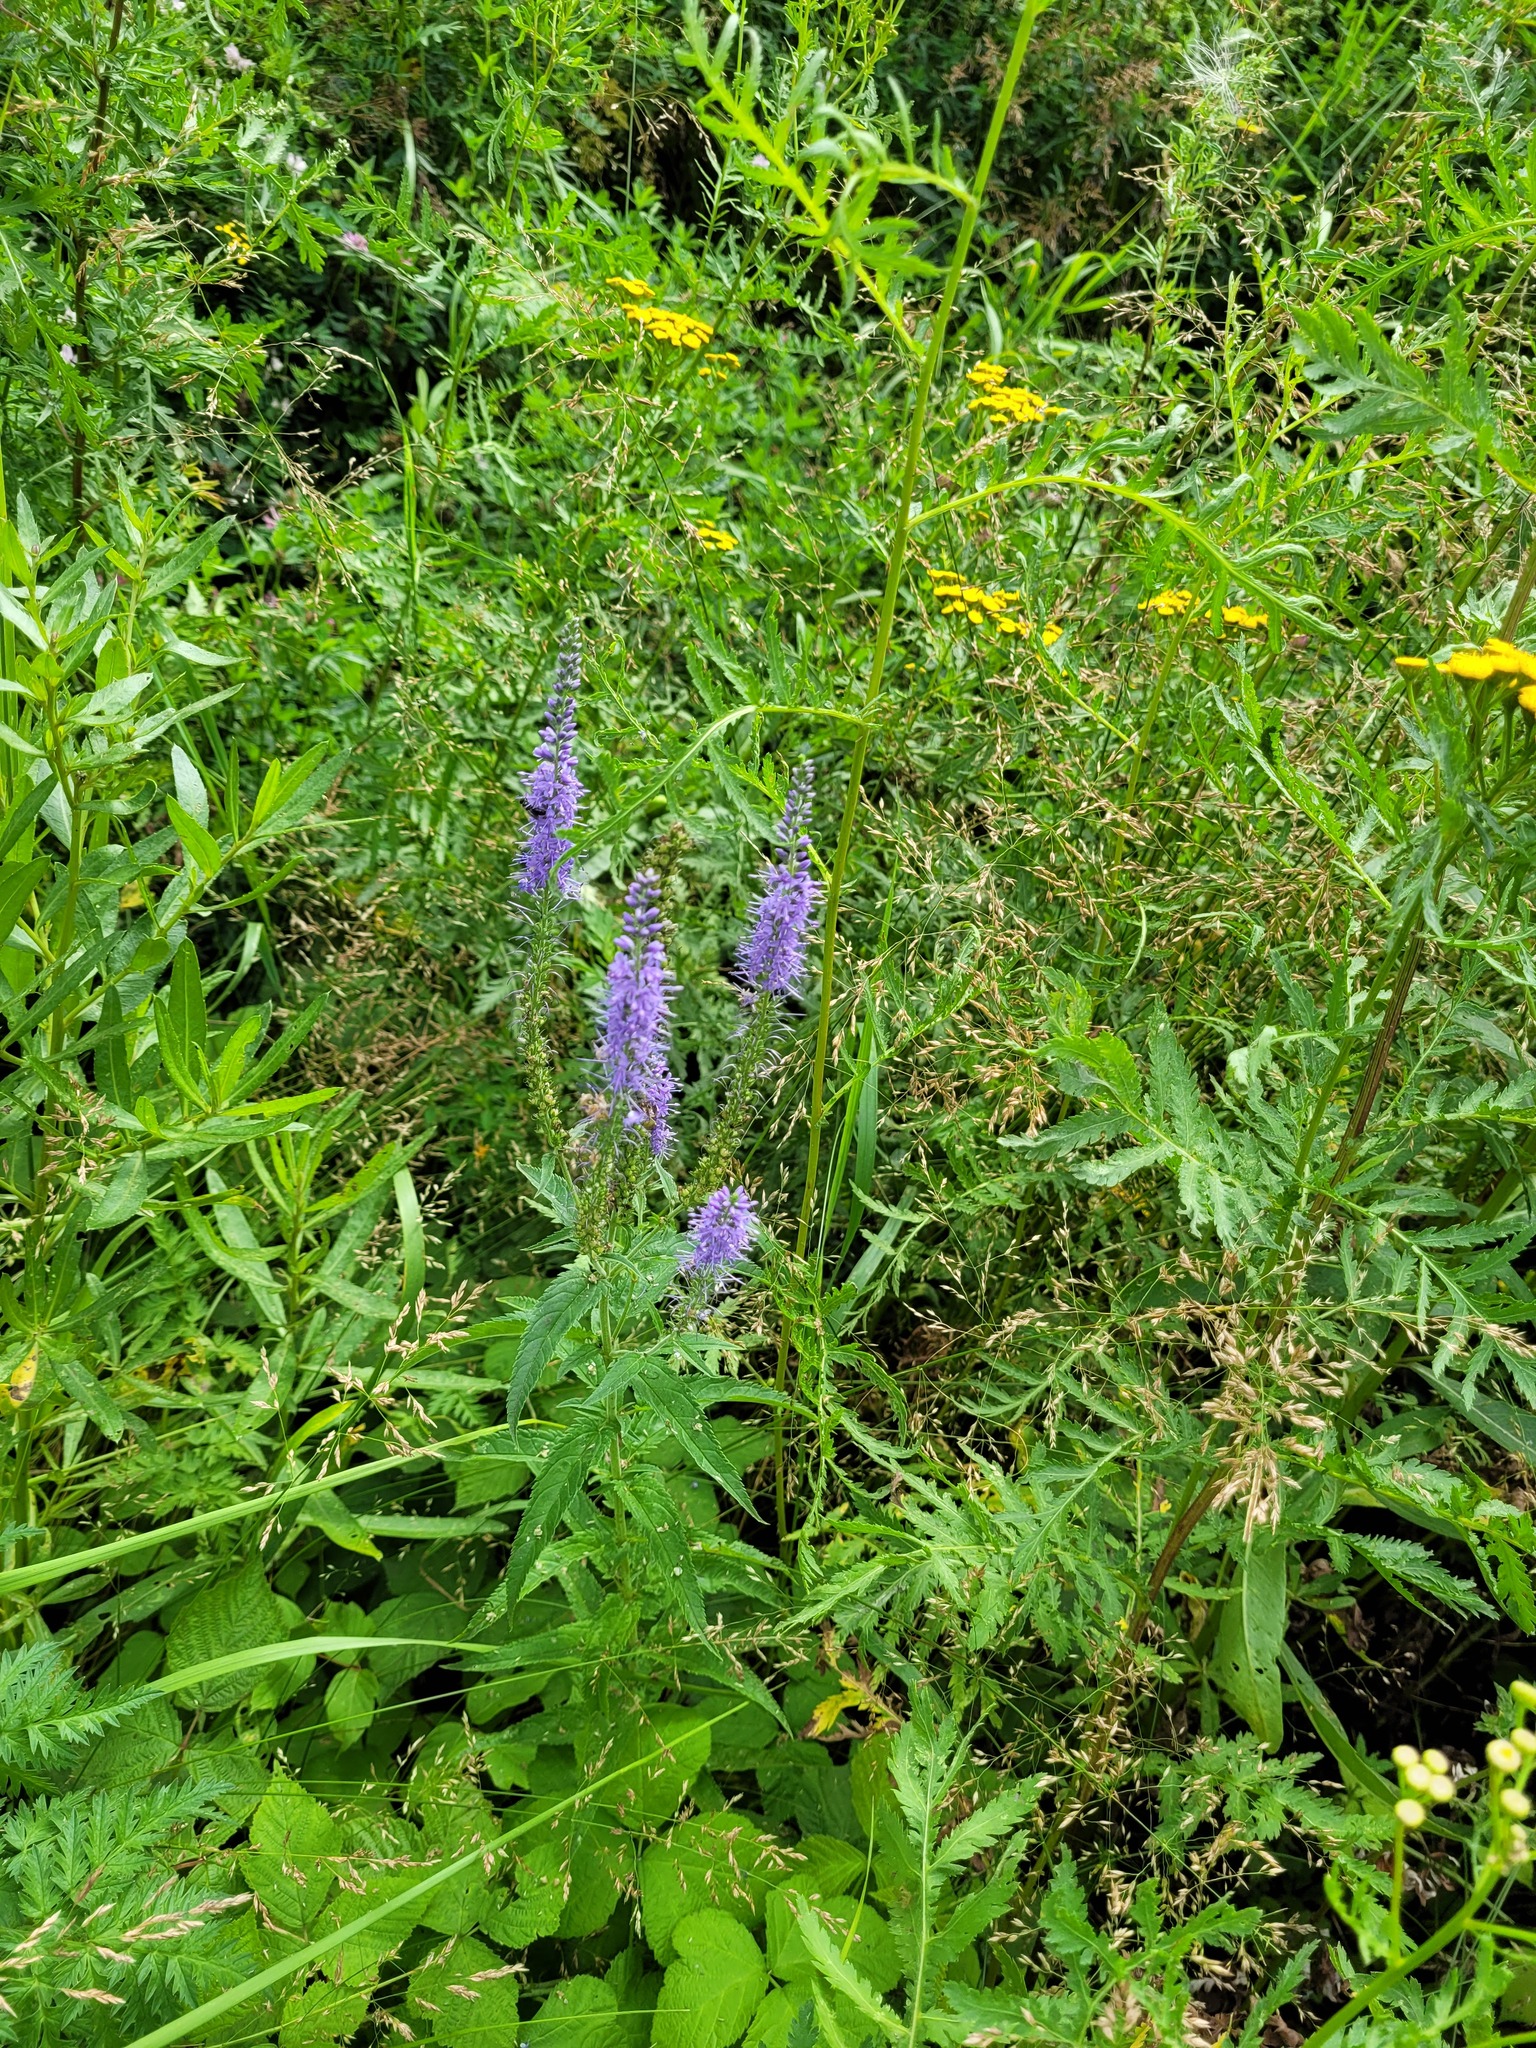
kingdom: Plantae
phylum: Tracheophyta
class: Magnoliopsida
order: Lamiales
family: Plantaginaceae
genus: Veronica
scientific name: Veronica longifolia
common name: Garden speedwell
